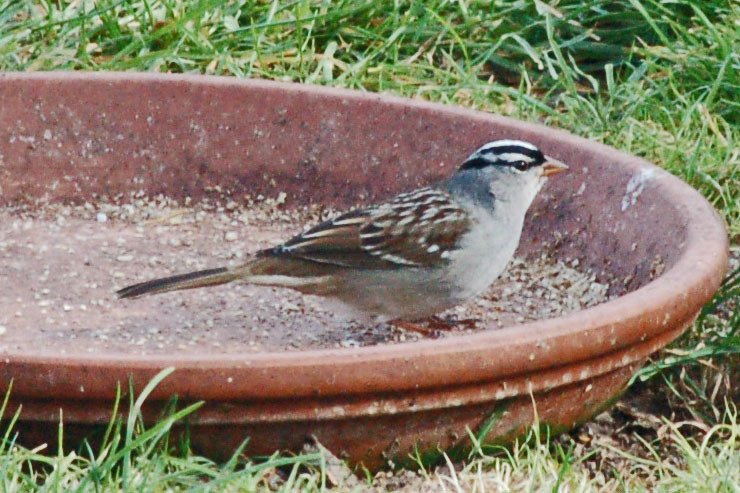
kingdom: Animalia
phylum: Chordata
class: Aves
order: Passeriformes
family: Passerellidae
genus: Zonotrichia
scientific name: Zonotrichia leucophrys
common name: White-crowned sparrow
